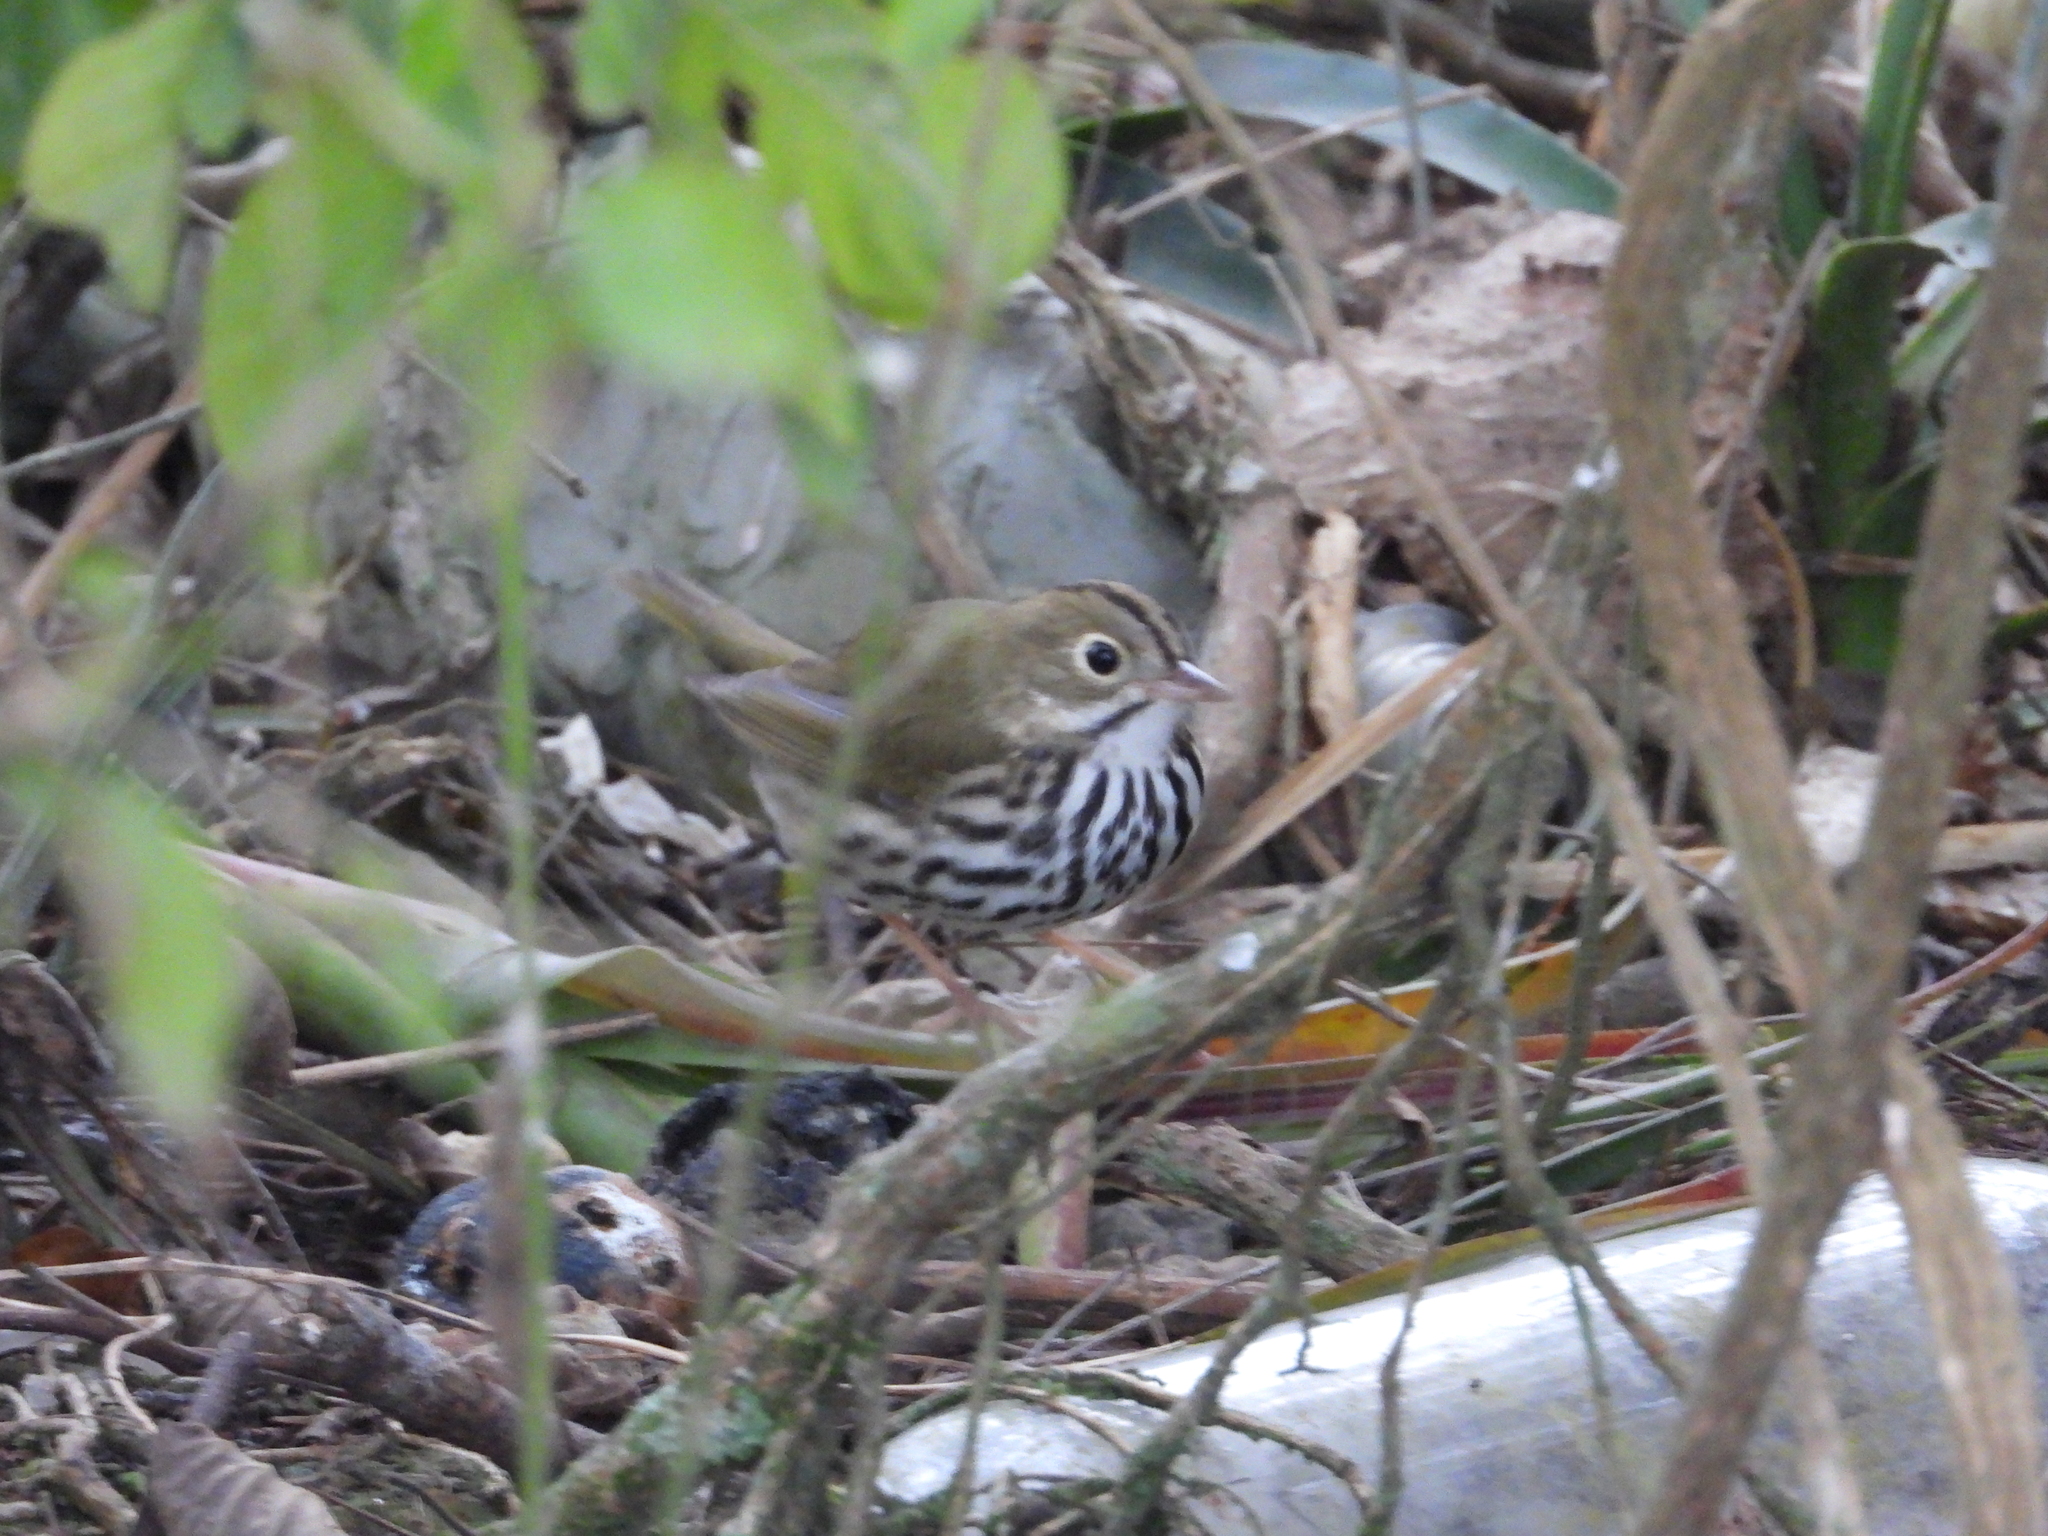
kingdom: Animalia
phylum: Chordata
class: Aves
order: Passeriformes
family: Parulidae
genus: Seiurus
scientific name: Seiurus aurocapilla
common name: Ovenbird
